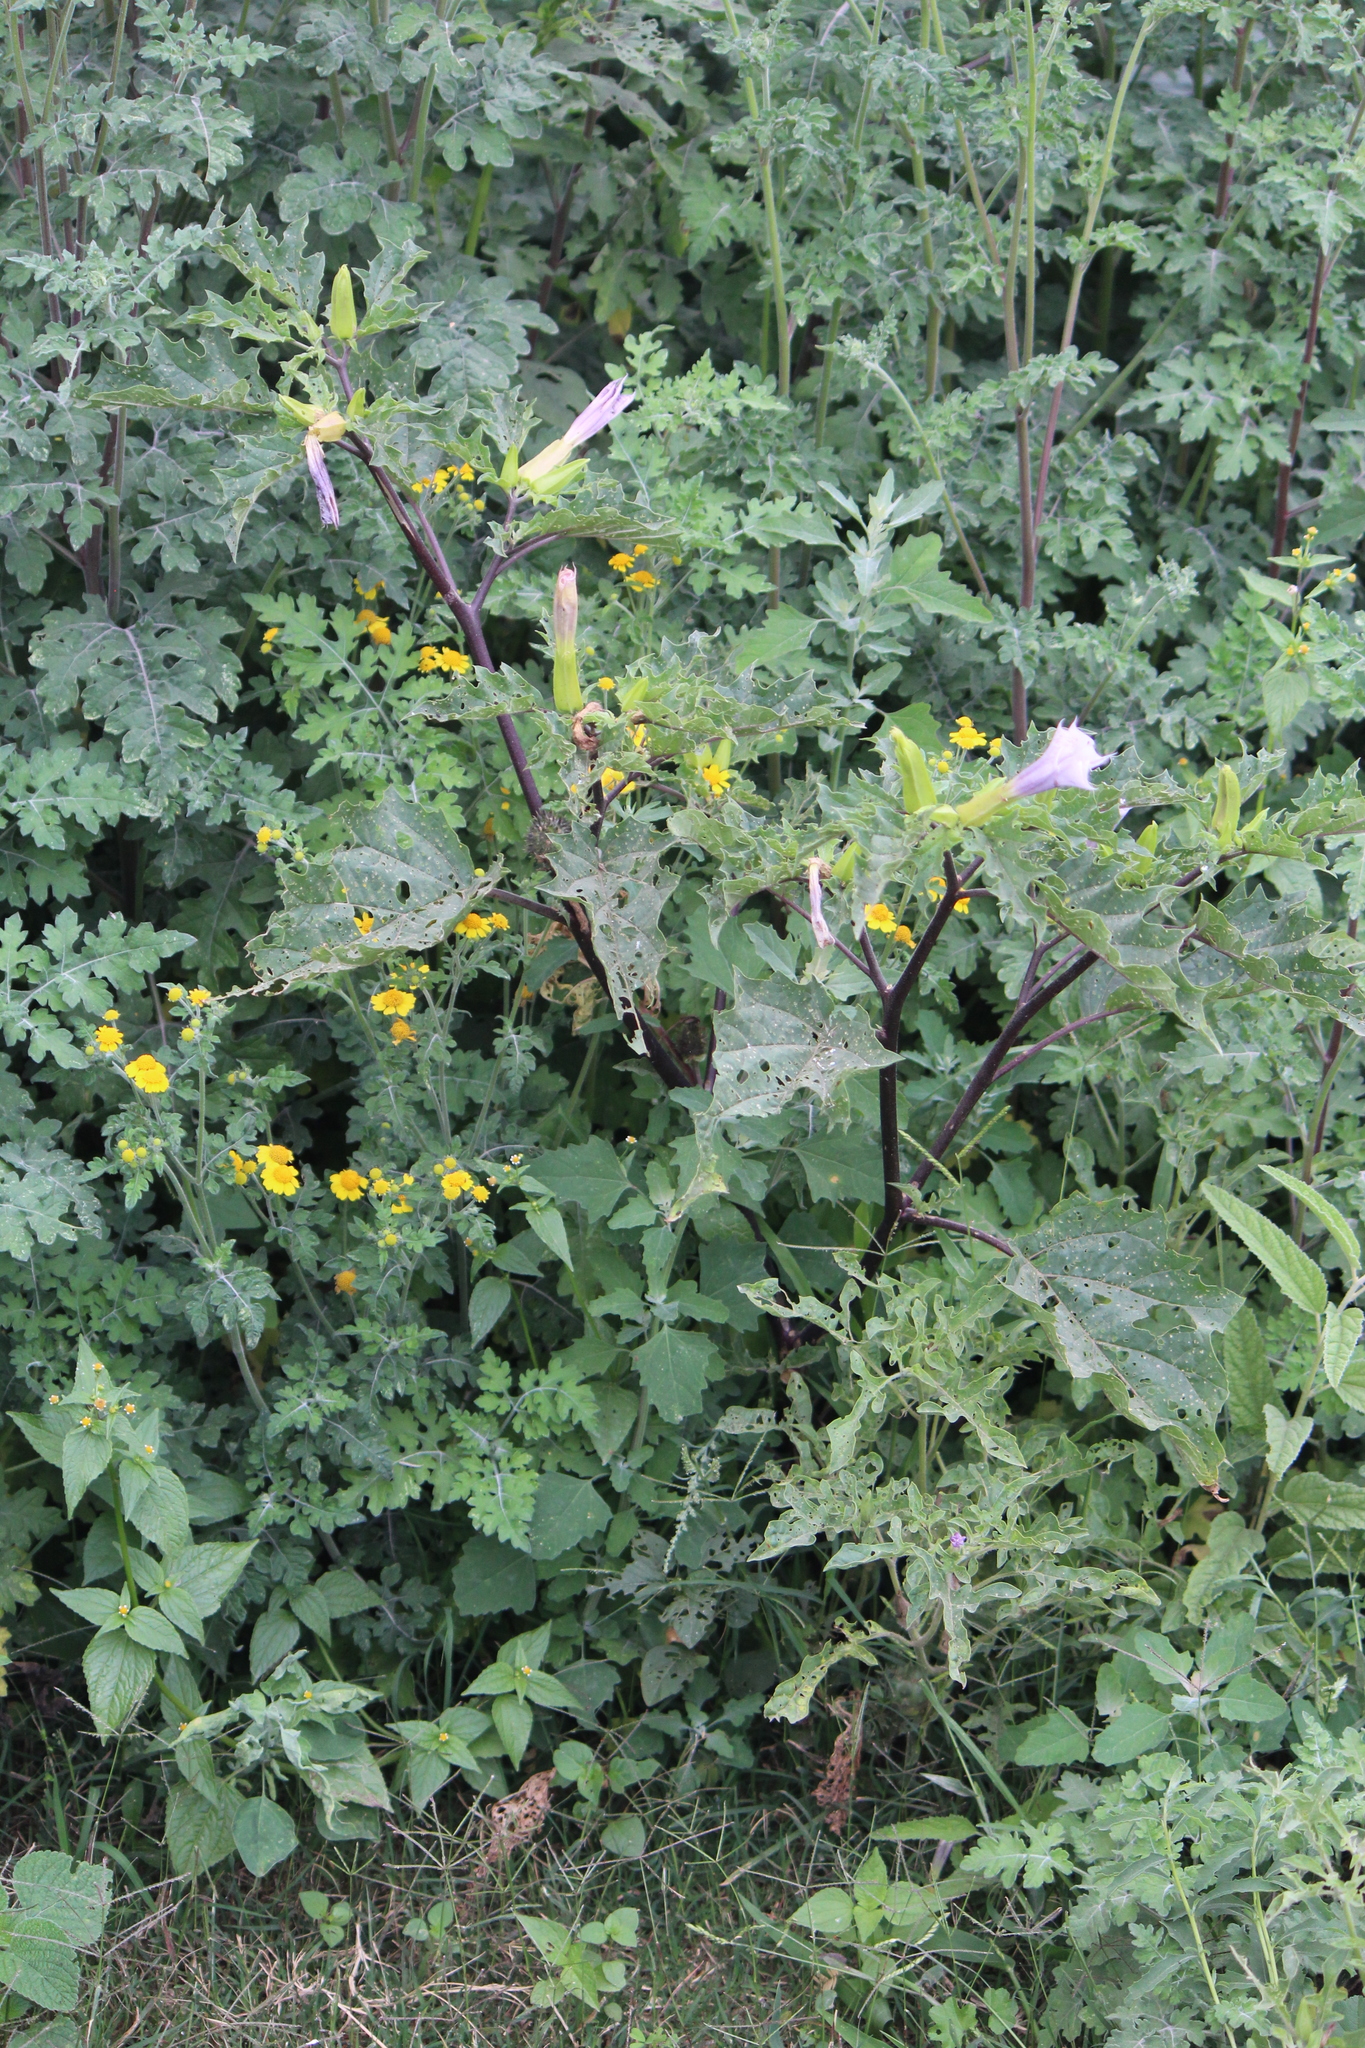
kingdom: Plantae
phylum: Tracheophyta
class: Magnoliopsida
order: Solanales
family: Solanaceae
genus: Datura
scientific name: Datura stramonium
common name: Thorn-apple
